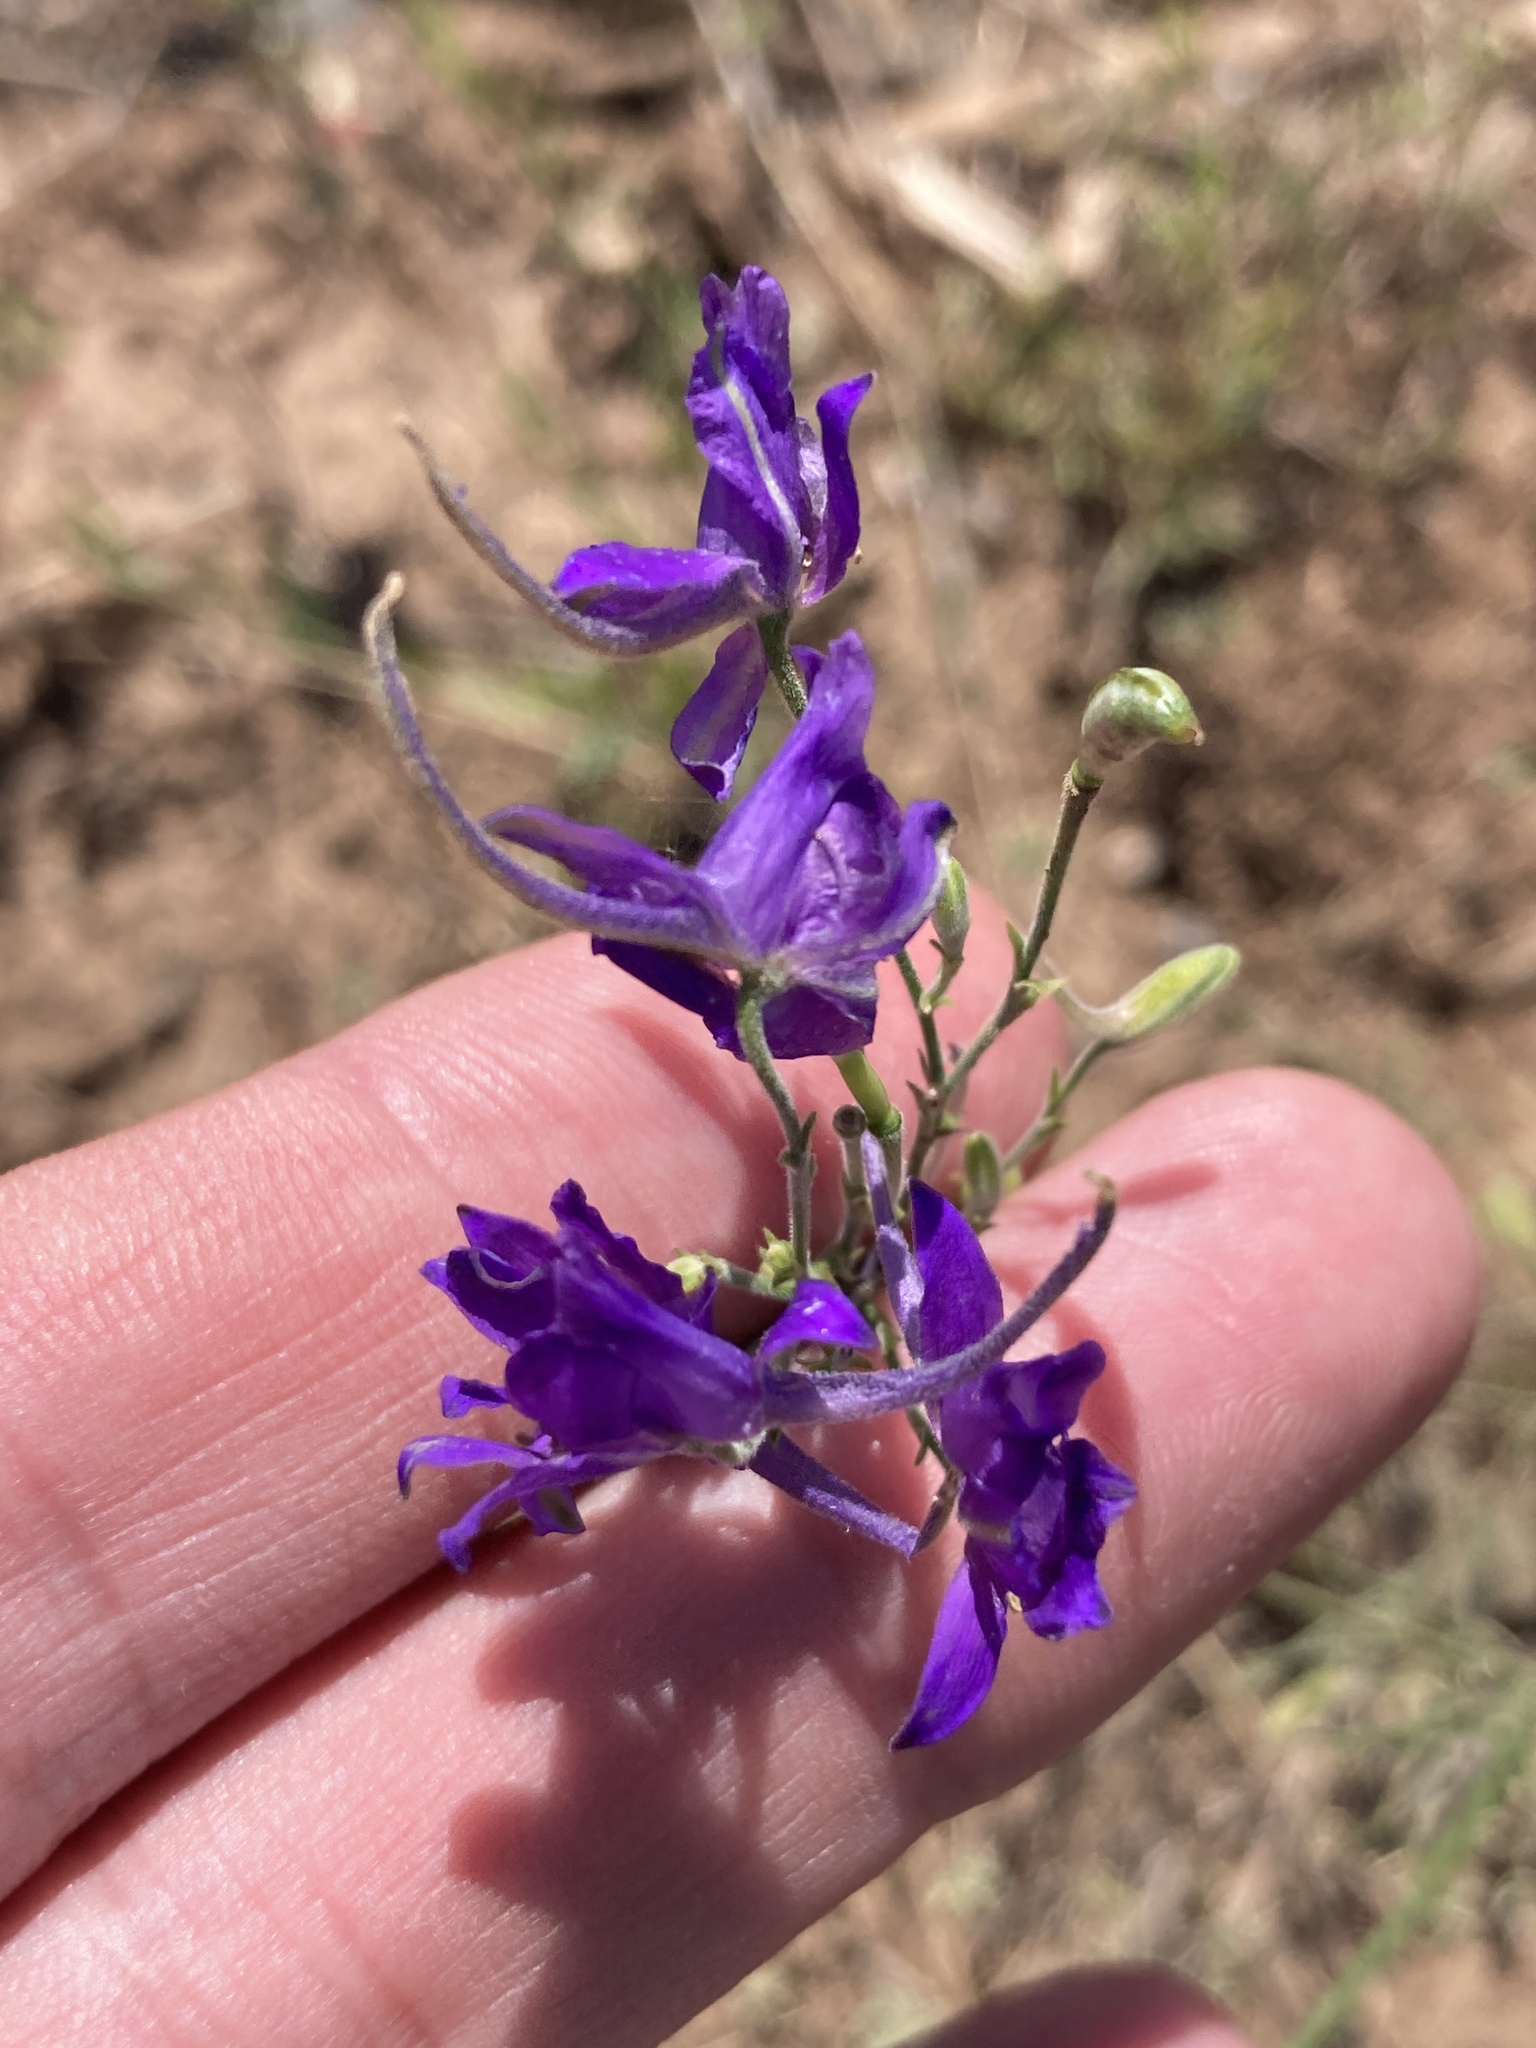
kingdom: Plantae
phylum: Tracheophyta
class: Magnoliopsida
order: Ranunculales
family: Ranunculaceae
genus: Delphinium
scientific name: Delphinium consolida
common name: Branching larkspur
